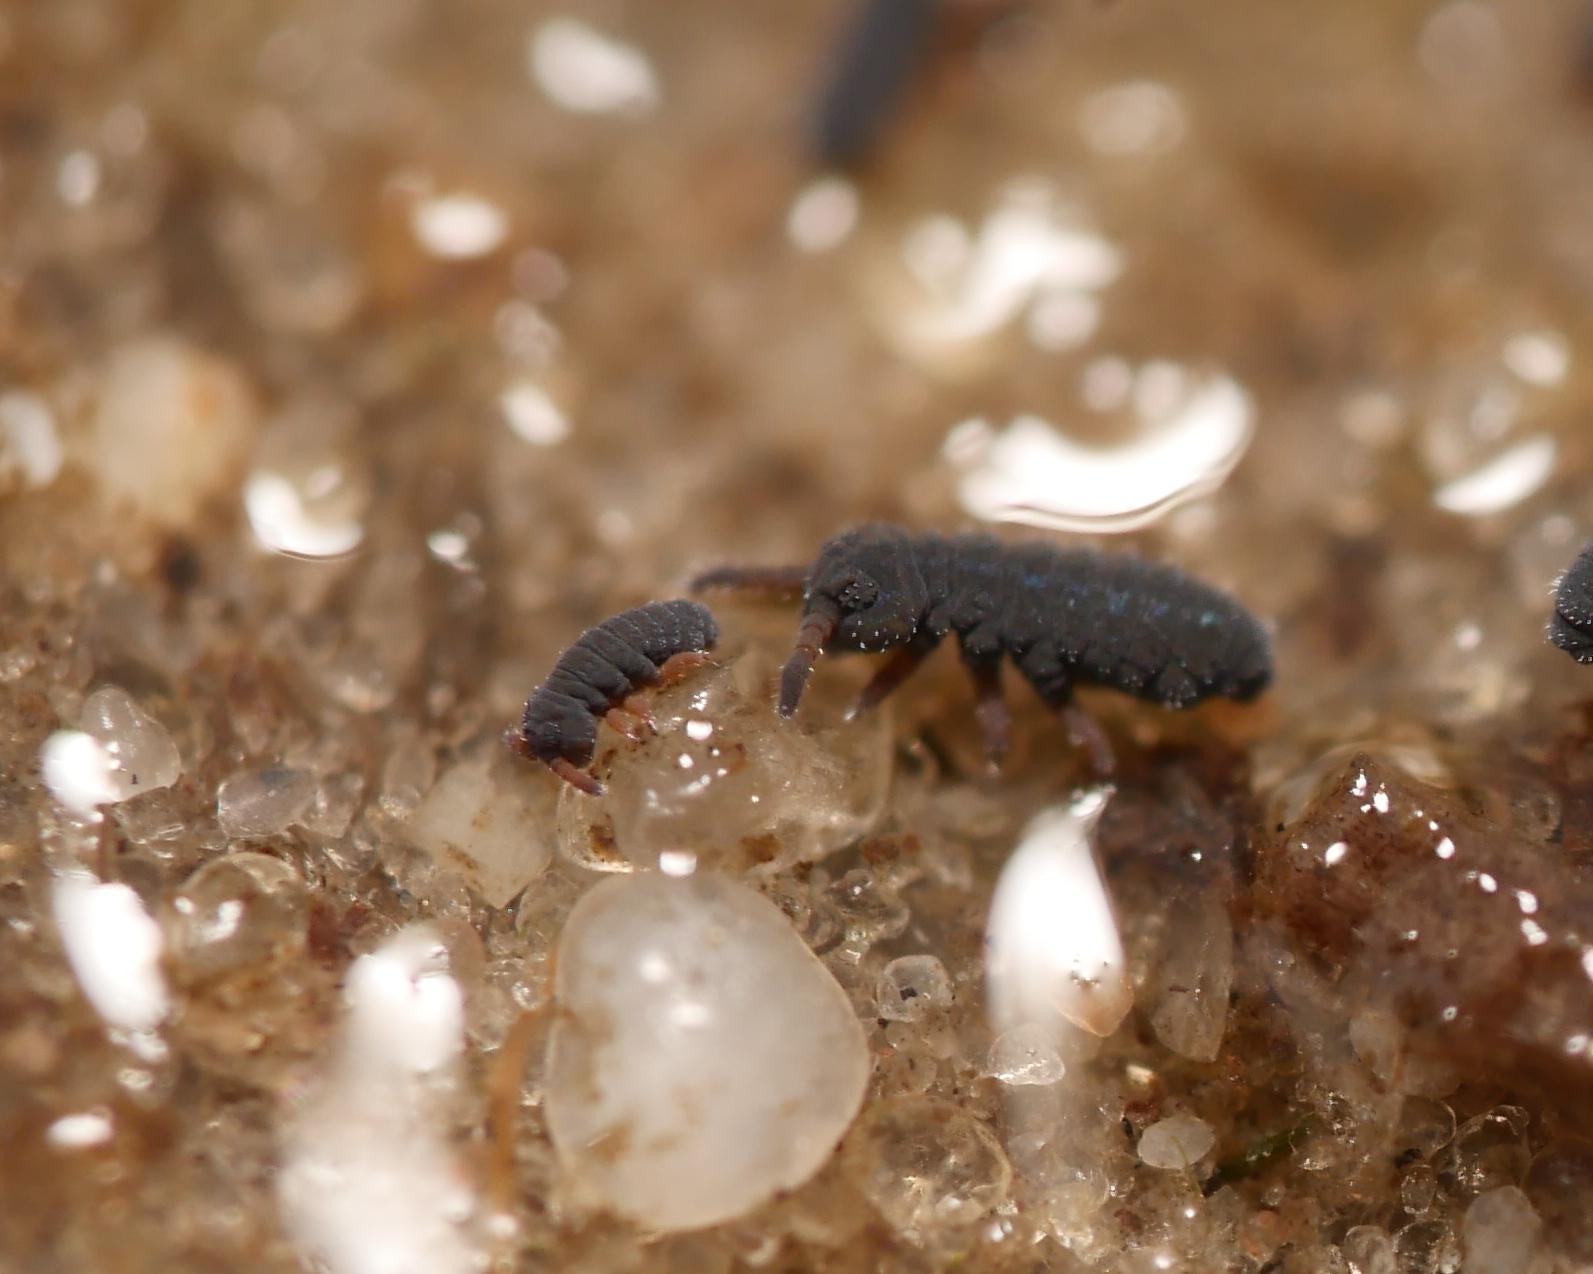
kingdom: Animalia
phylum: Arthropoda
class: Collembola
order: Poduromorpha
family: Poduridae
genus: Podura
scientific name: Podura aquatica
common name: Water springtail
